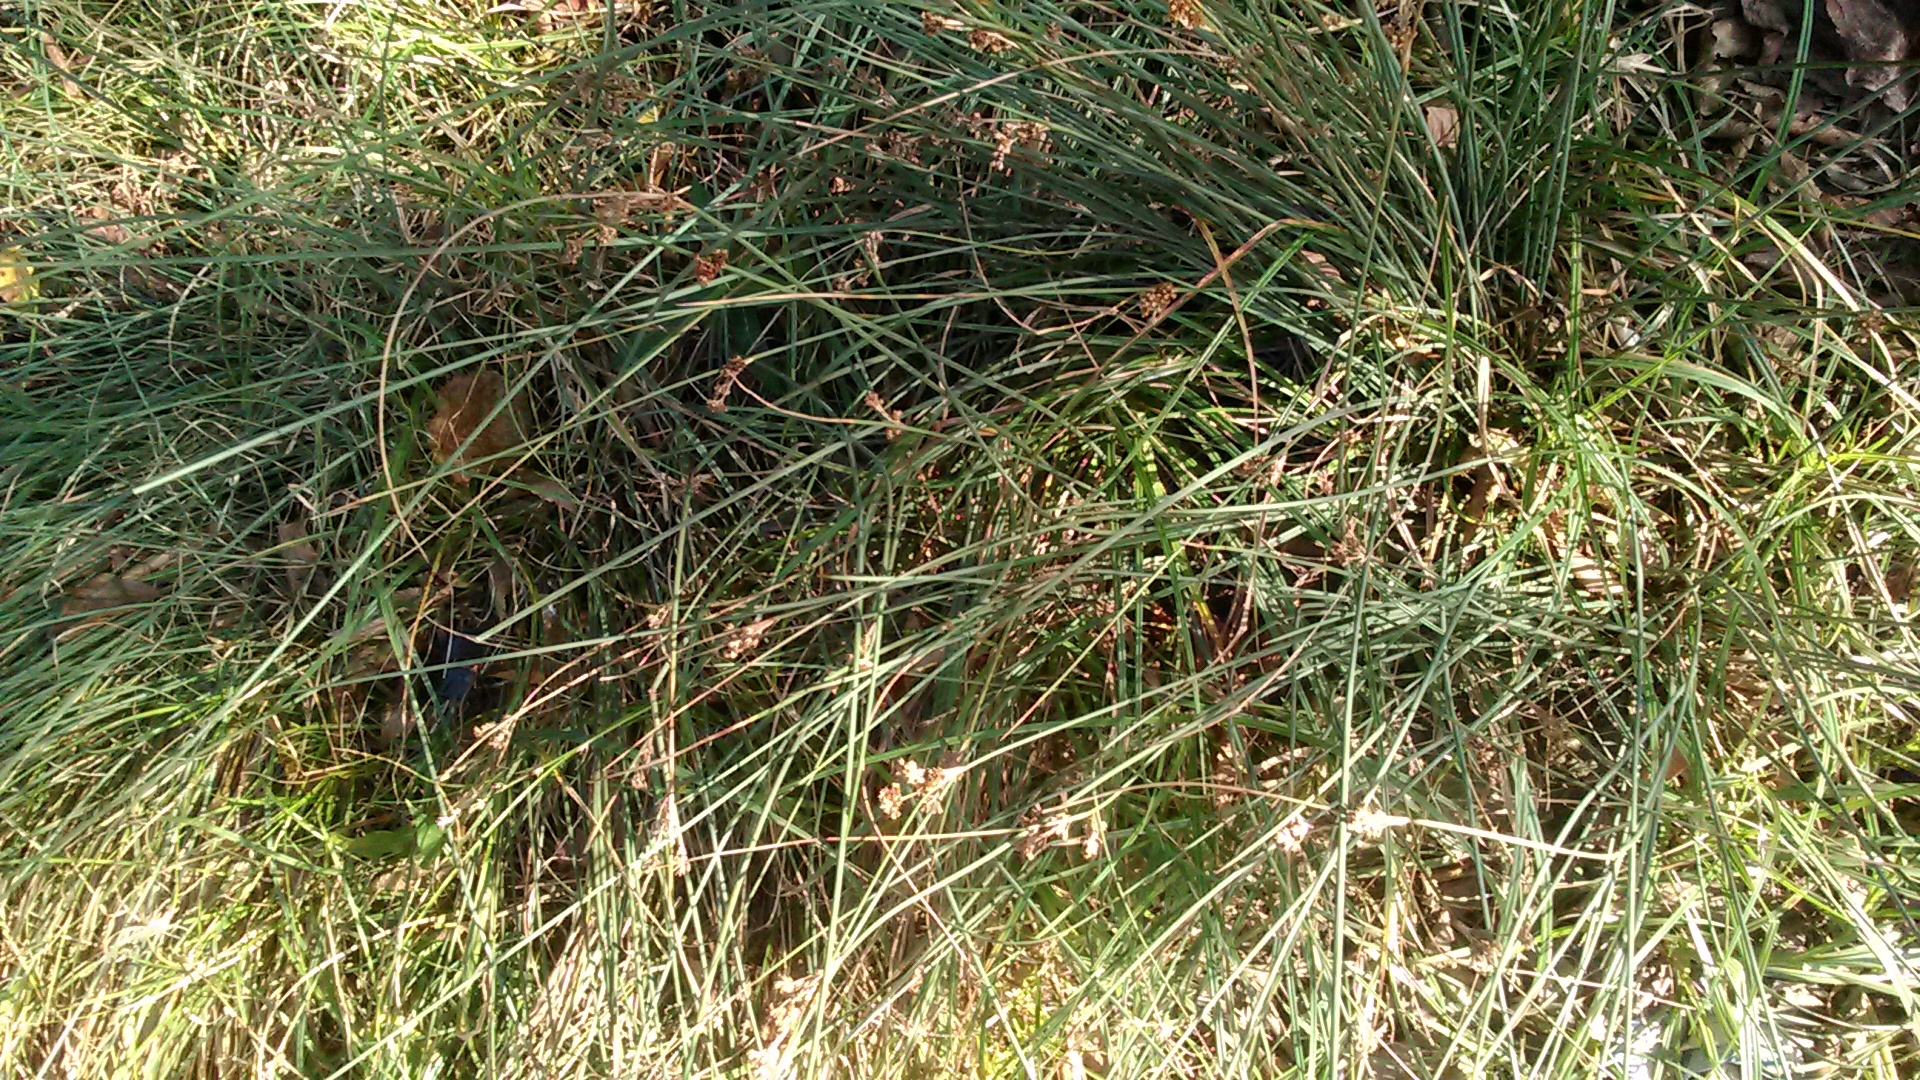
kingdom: Plantae
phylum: Tracheophyta
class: Liliopsida
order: Poales
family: Juncaceae
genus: Juncus
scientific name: Juncus inflexus
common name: Hard rush
